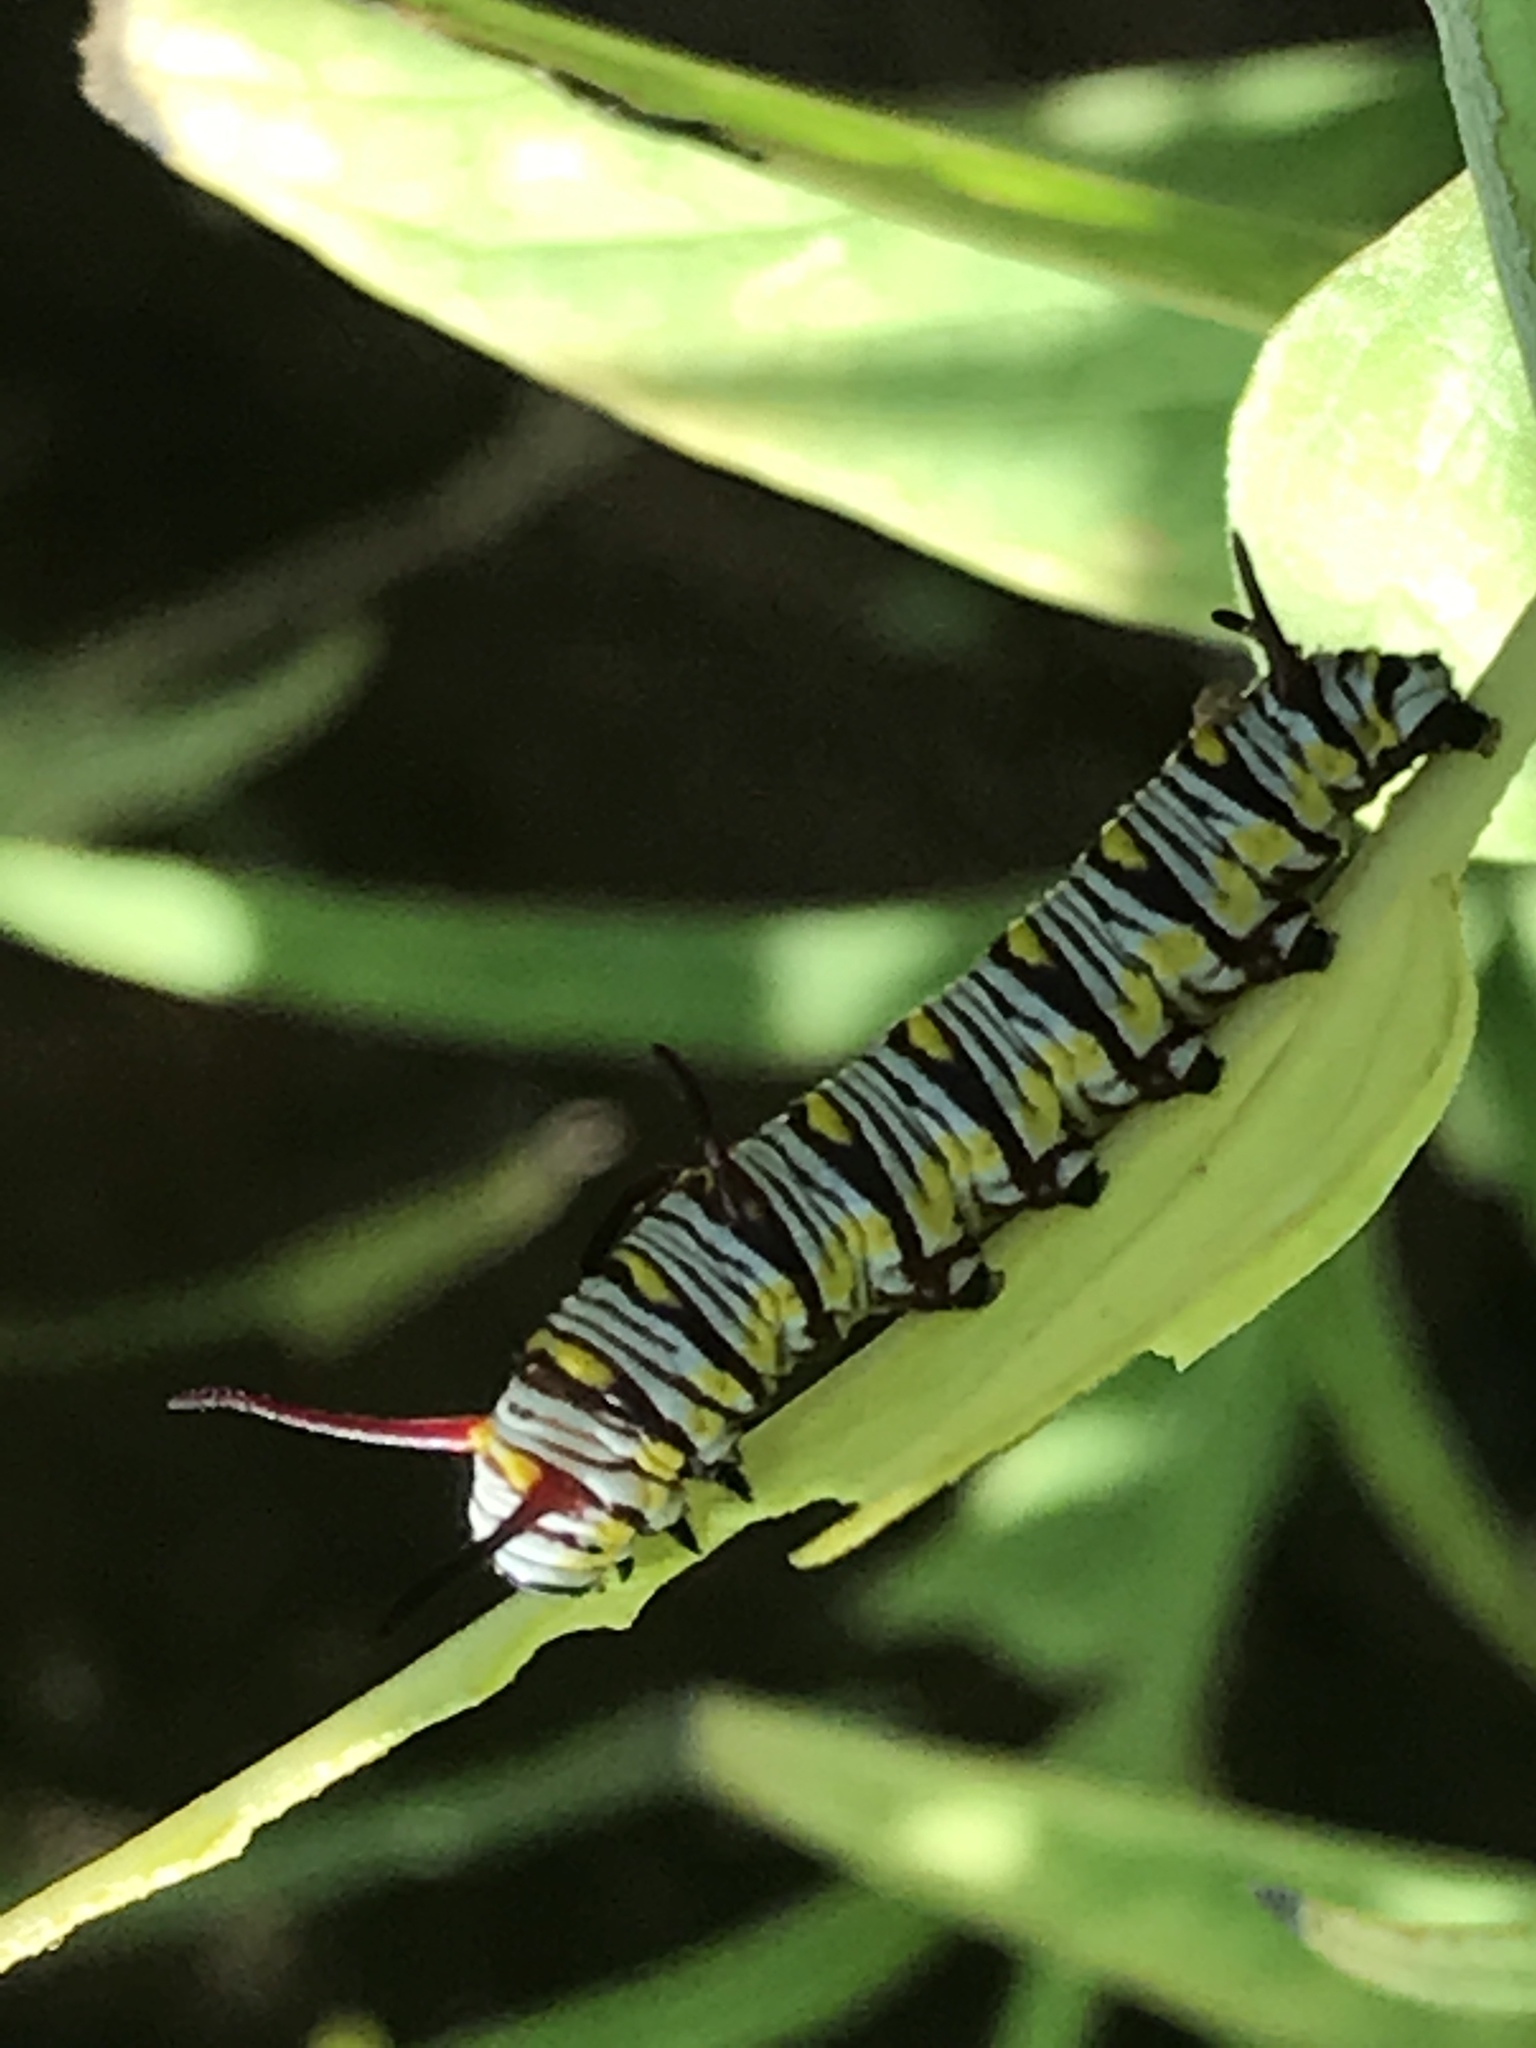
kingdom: Animalia
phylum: Arthropoda
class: Insecta
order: Lepidoptera
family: Nymphalidae
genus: Danaus
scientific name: Danaus gilippus
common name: Queen
